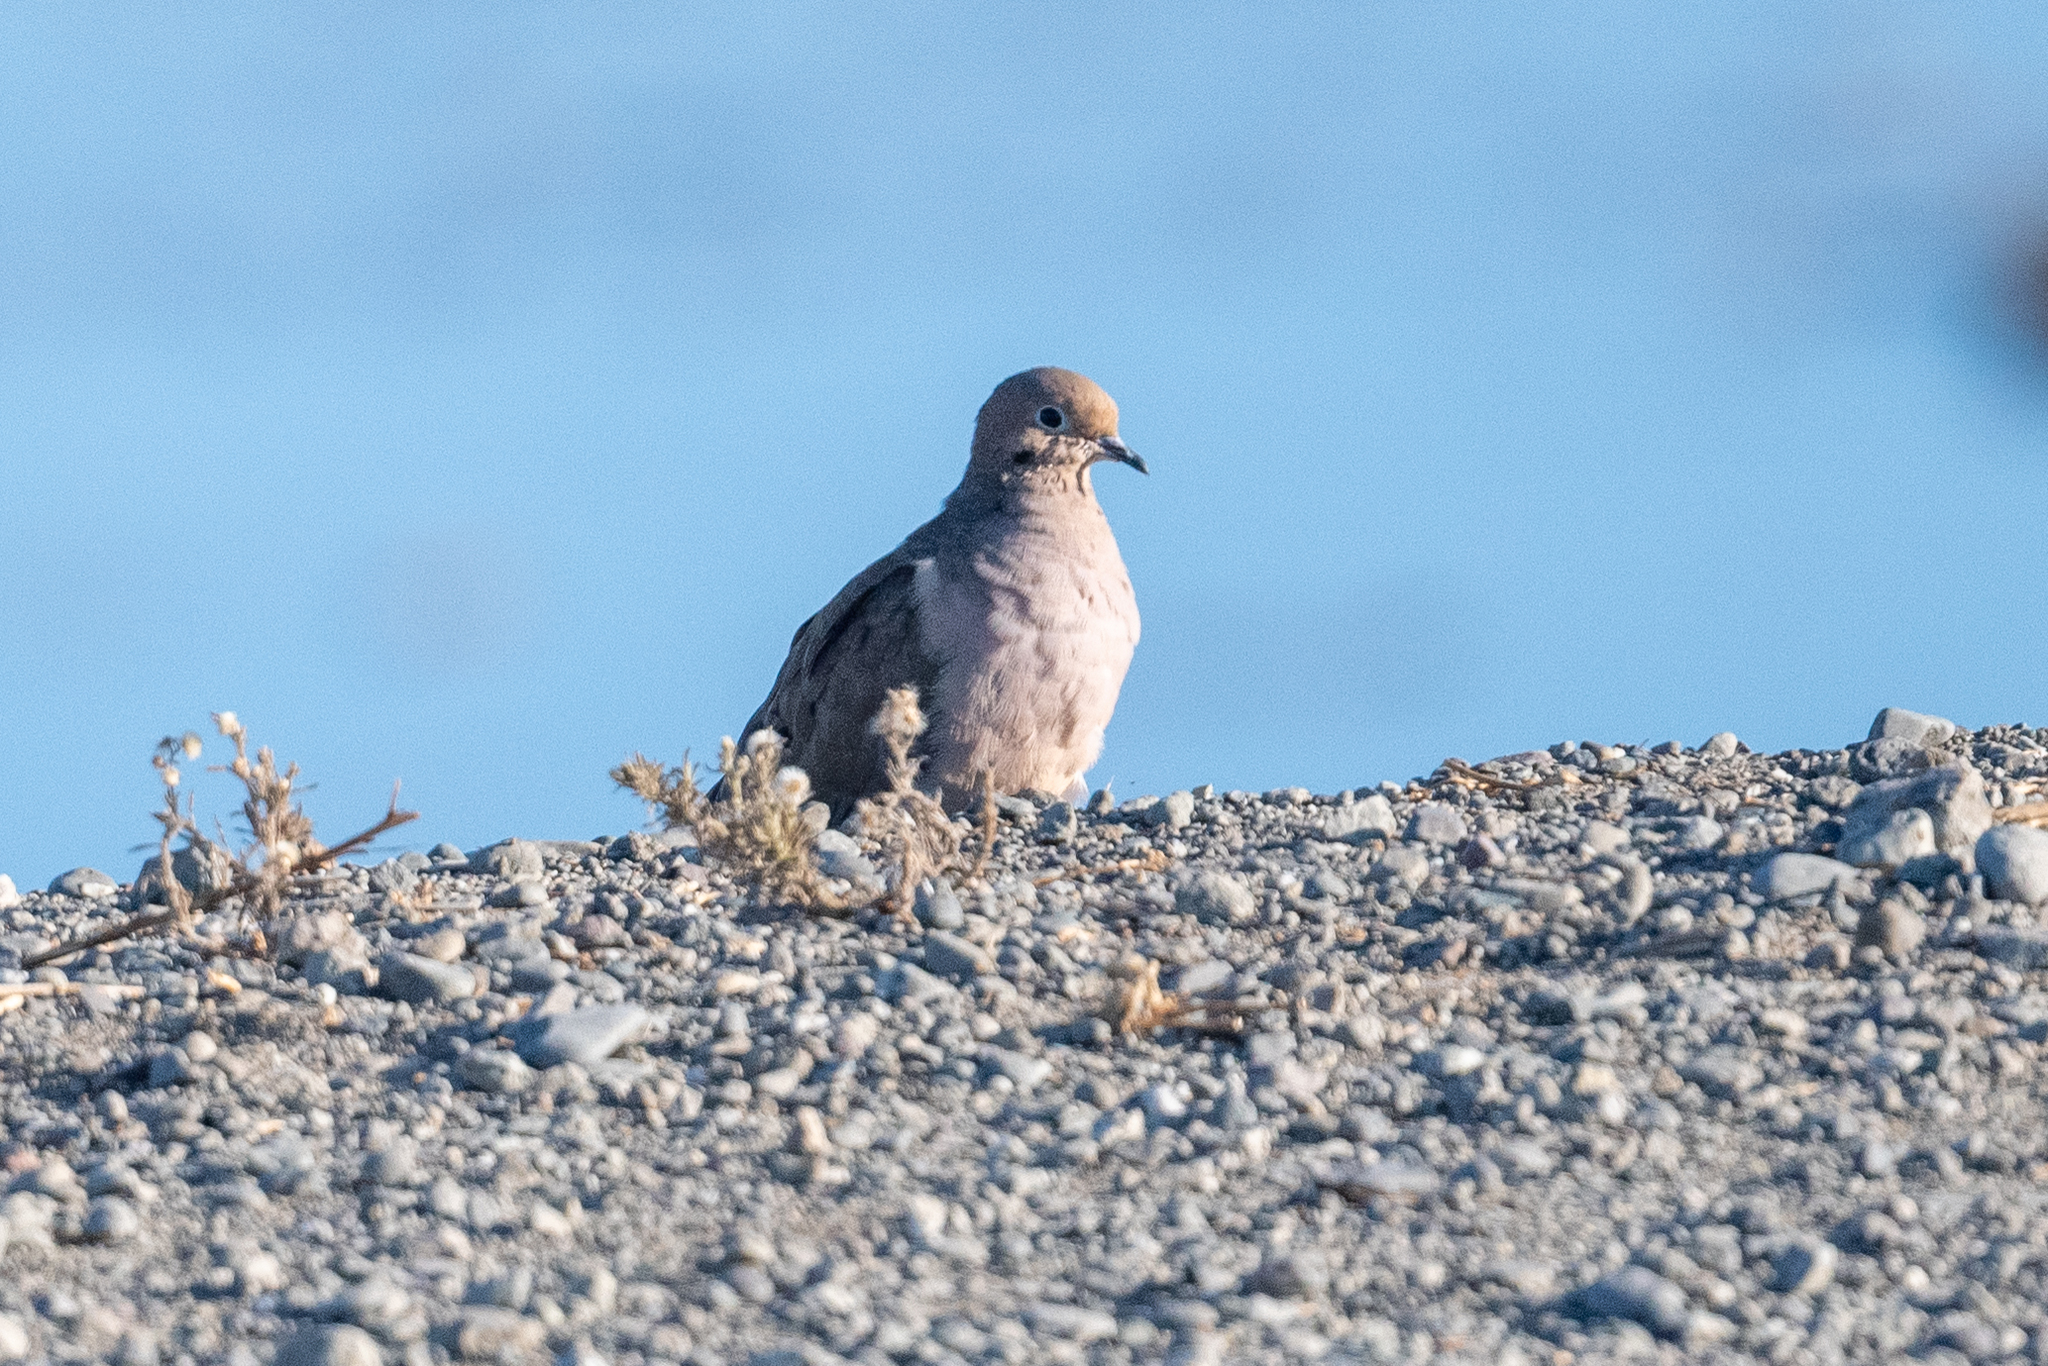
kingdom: Animalia
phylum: Chordata
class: Aves
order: Columbiformes
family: Columbidae
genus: Zenaida
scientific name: Zenaida macroura
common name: Mourning dove
